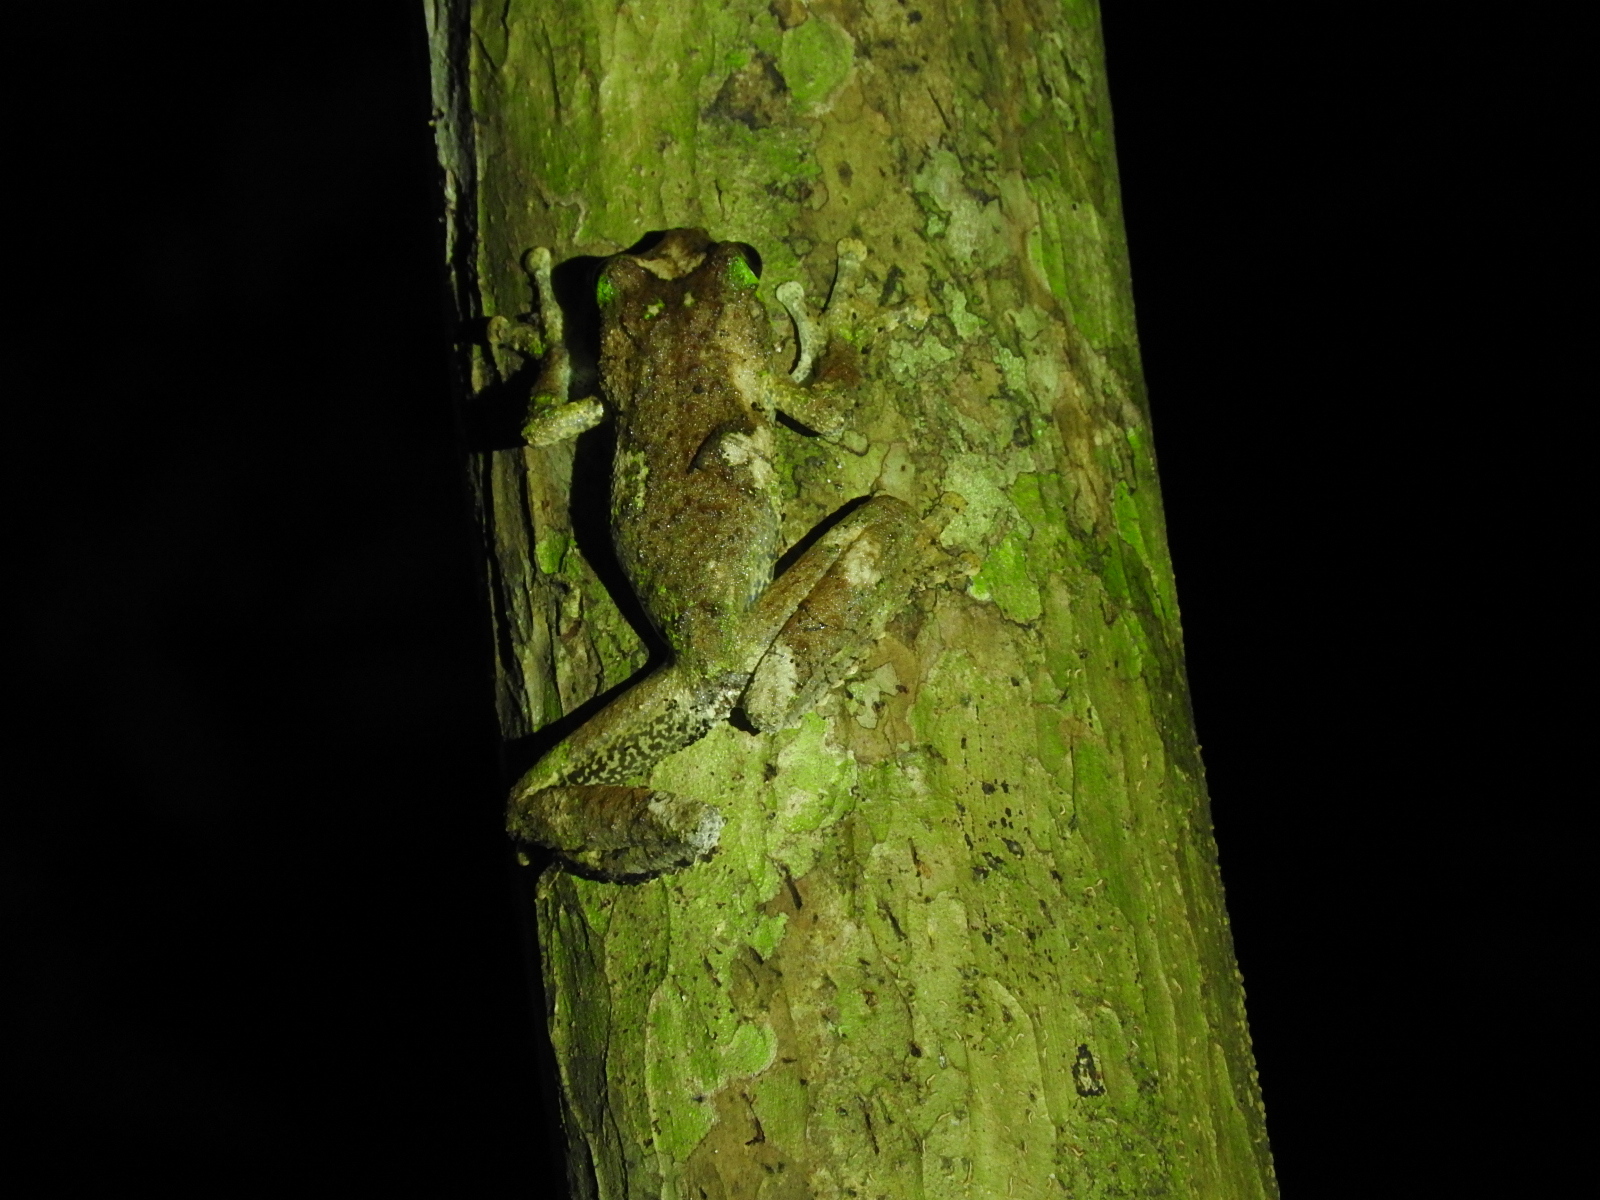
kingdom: Animalia
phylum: Chordata
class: Amphibia
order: Anura
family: Pelodryadidae
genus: Ranoidea
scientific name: Ranoidea serrata
